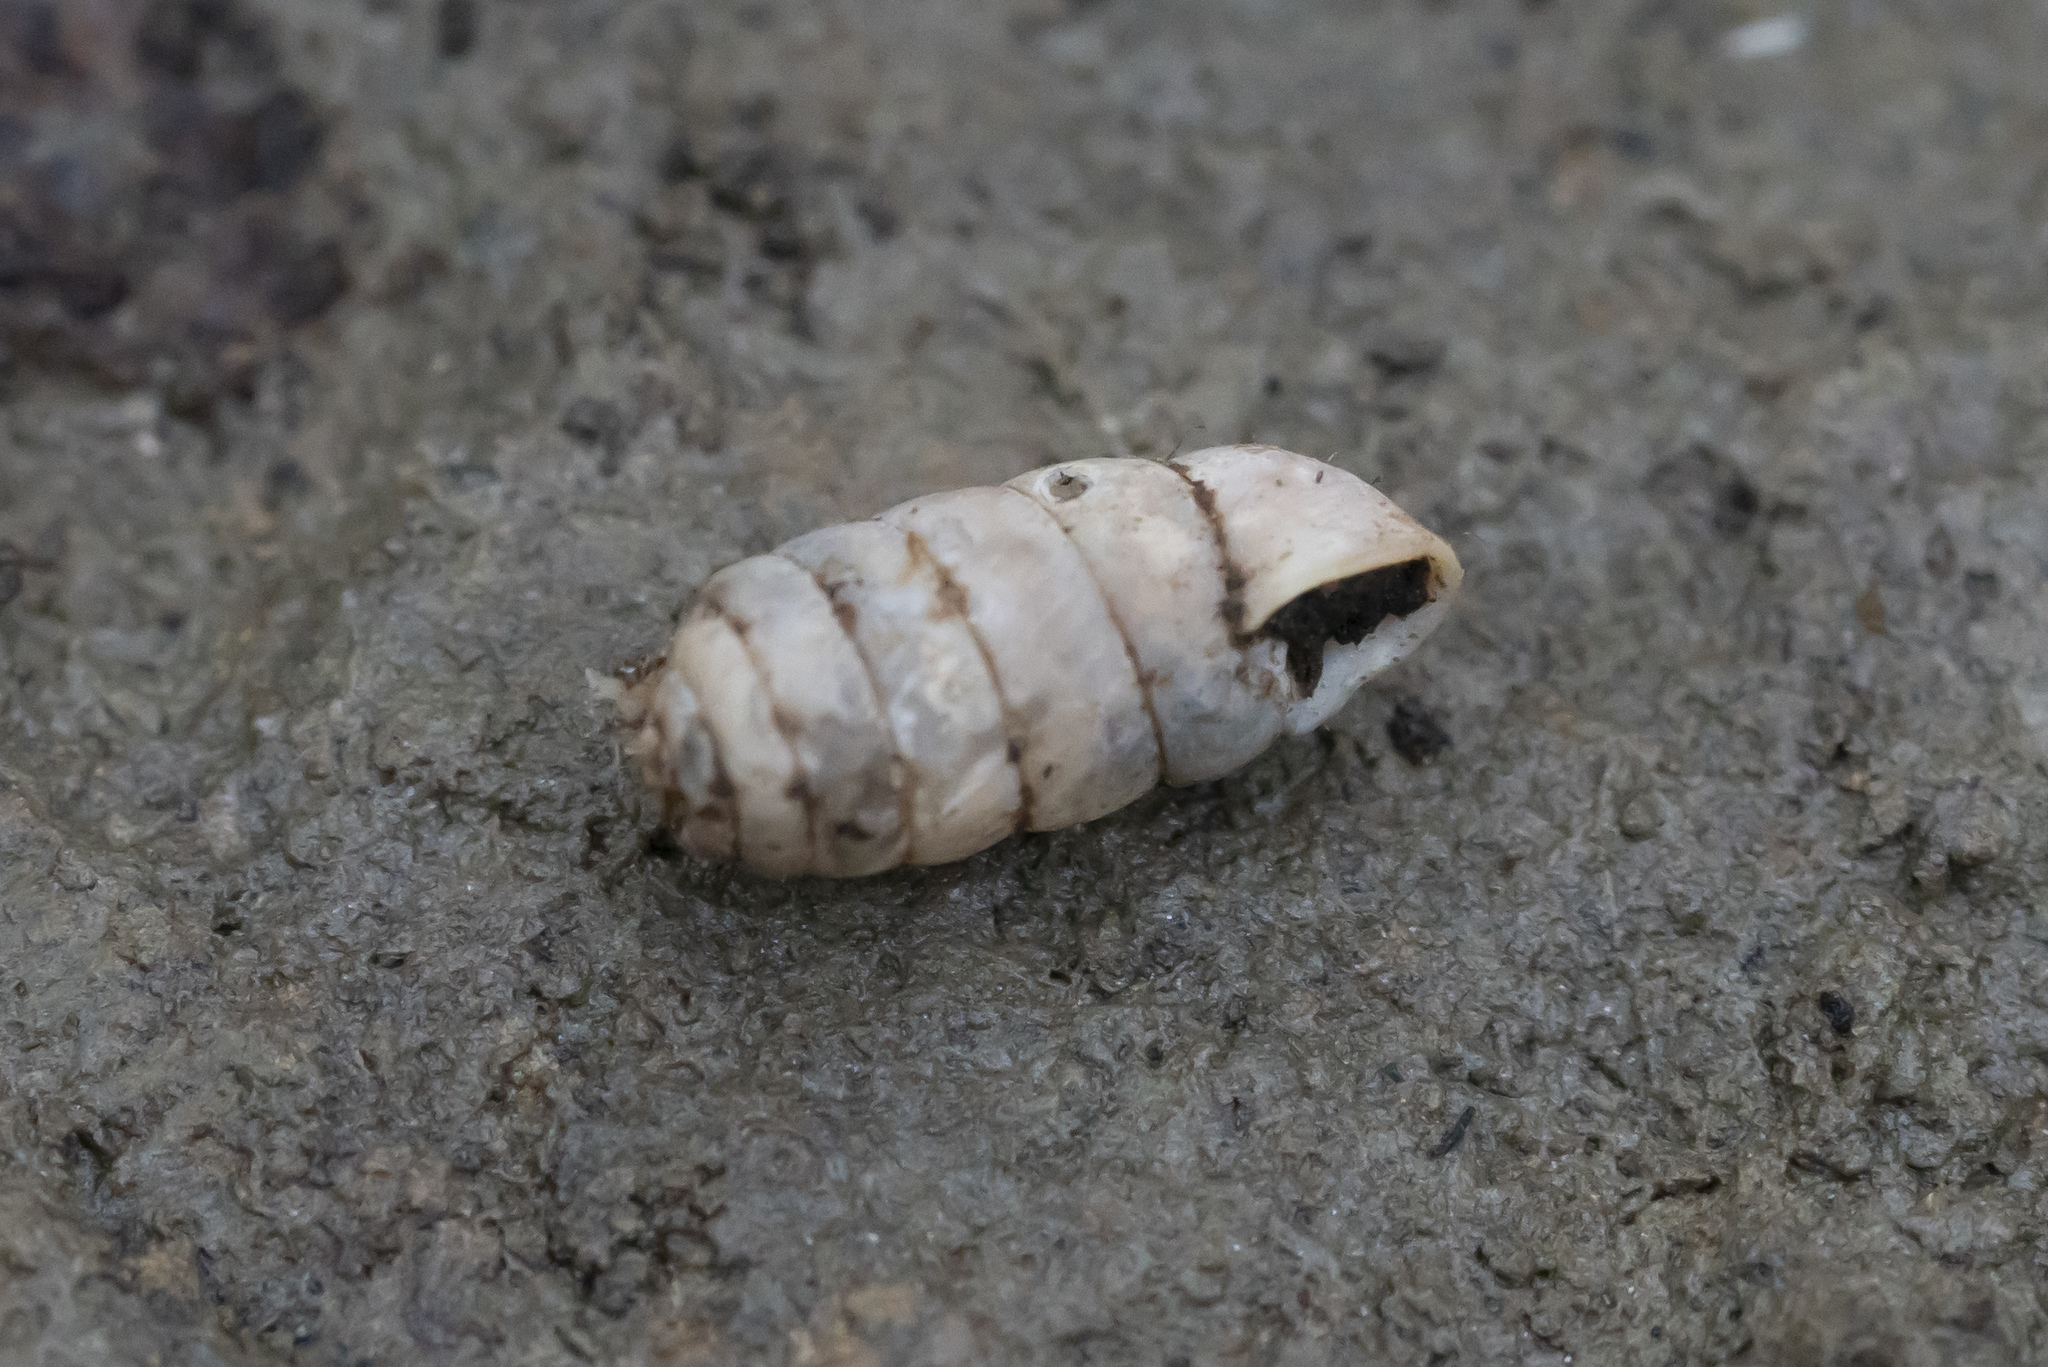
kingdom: Animalia
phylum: Mollusca
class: Gastropoda
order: Stylommatophora
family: Orculidae
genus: Orculella
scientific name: Orculella critica
